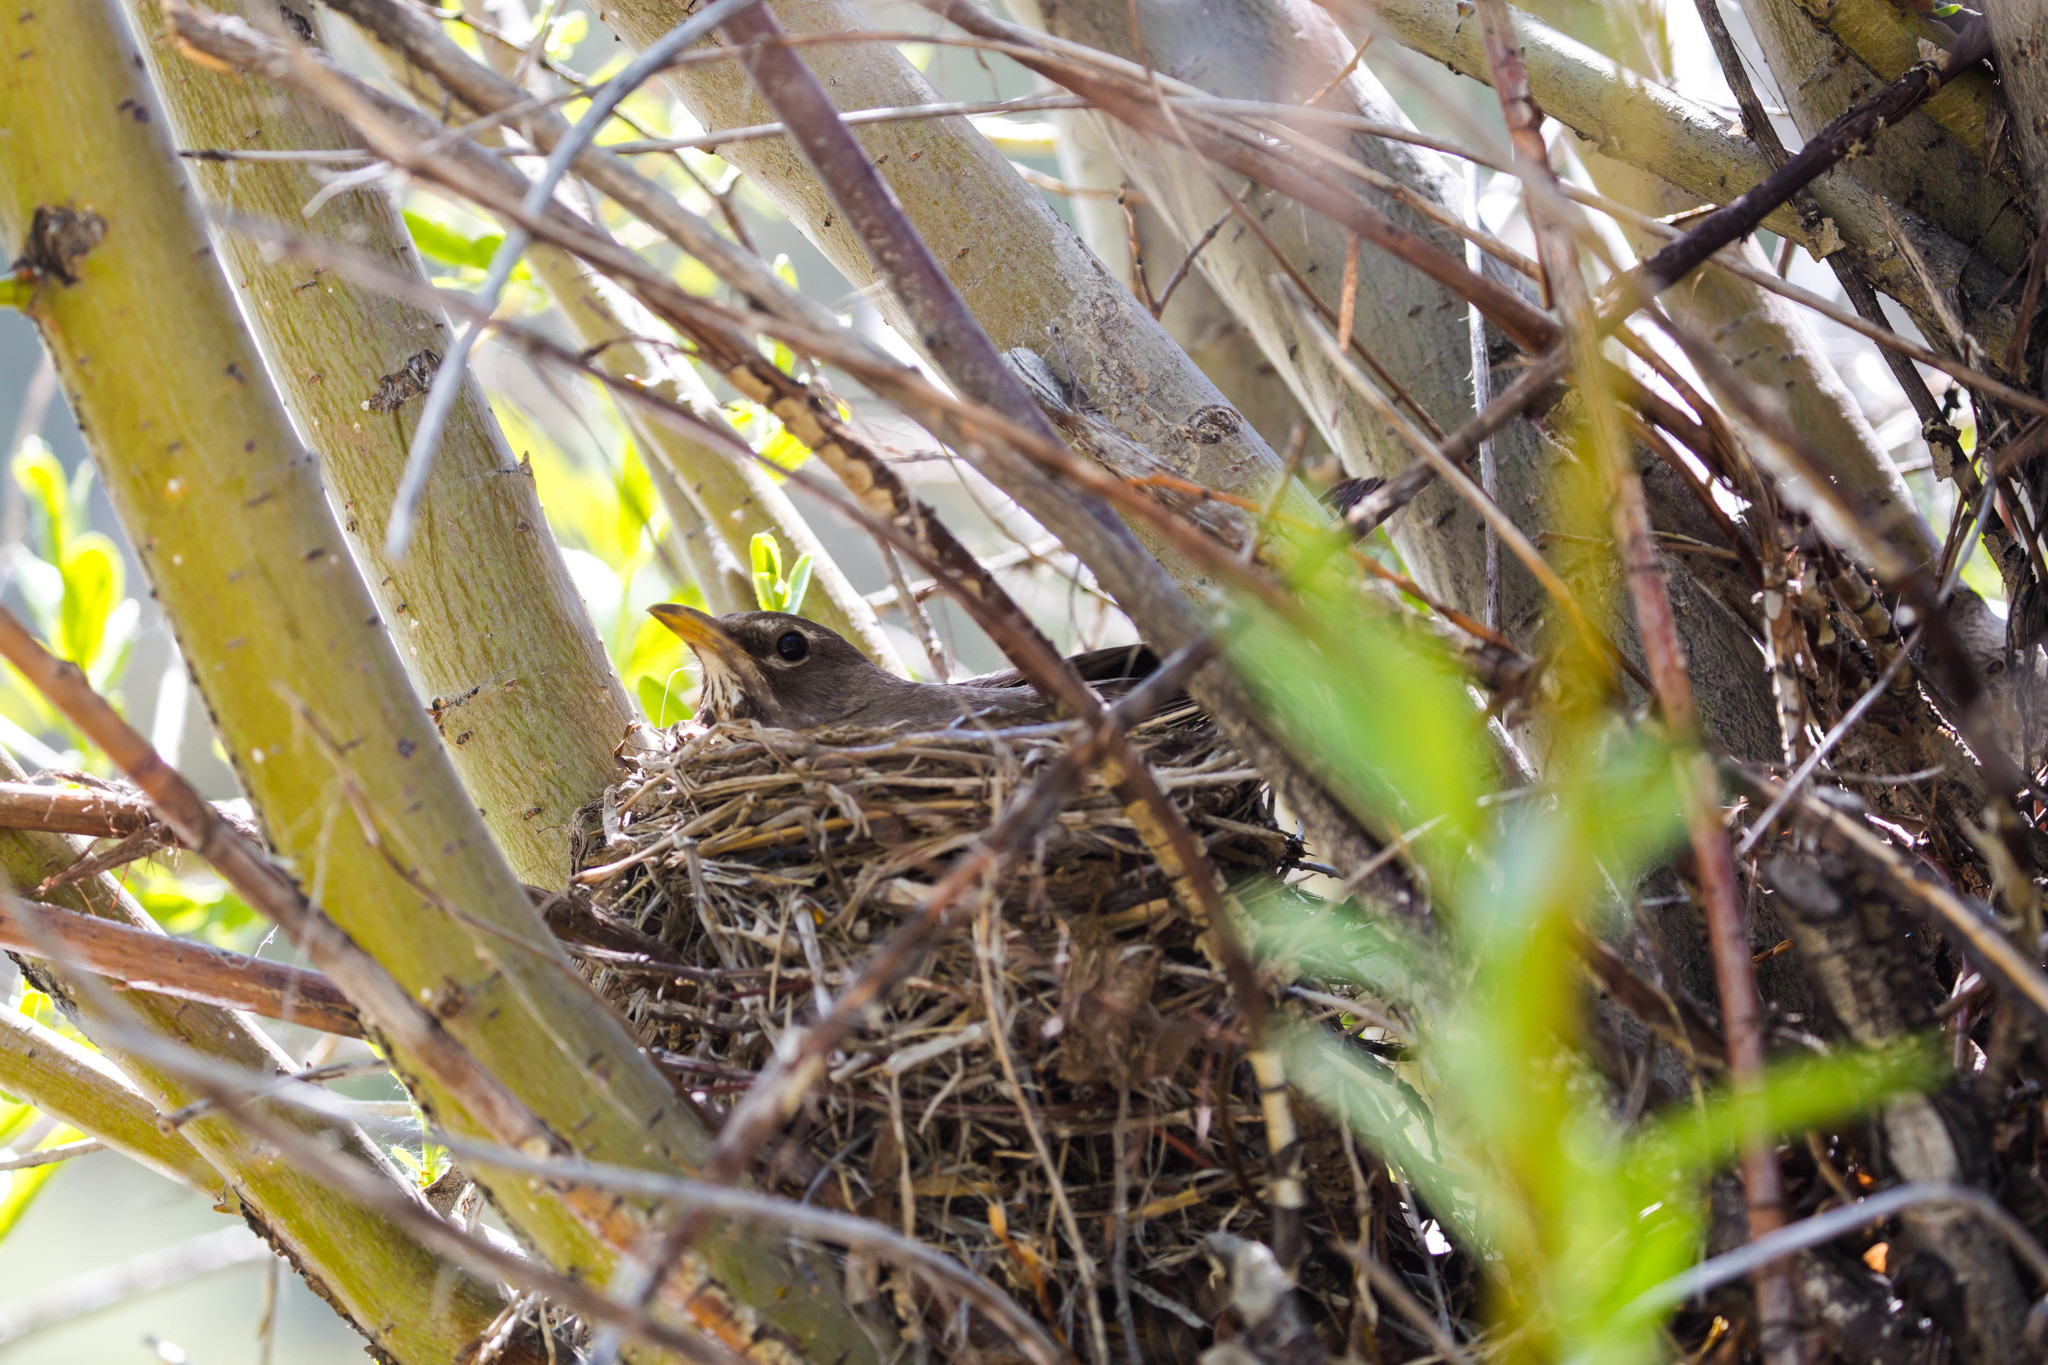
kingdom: Animalia
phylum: Chordata
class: Aves
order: Passeriformes
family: Turdidae
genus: Turdus
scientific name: Turdus migratorius
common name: American robin
